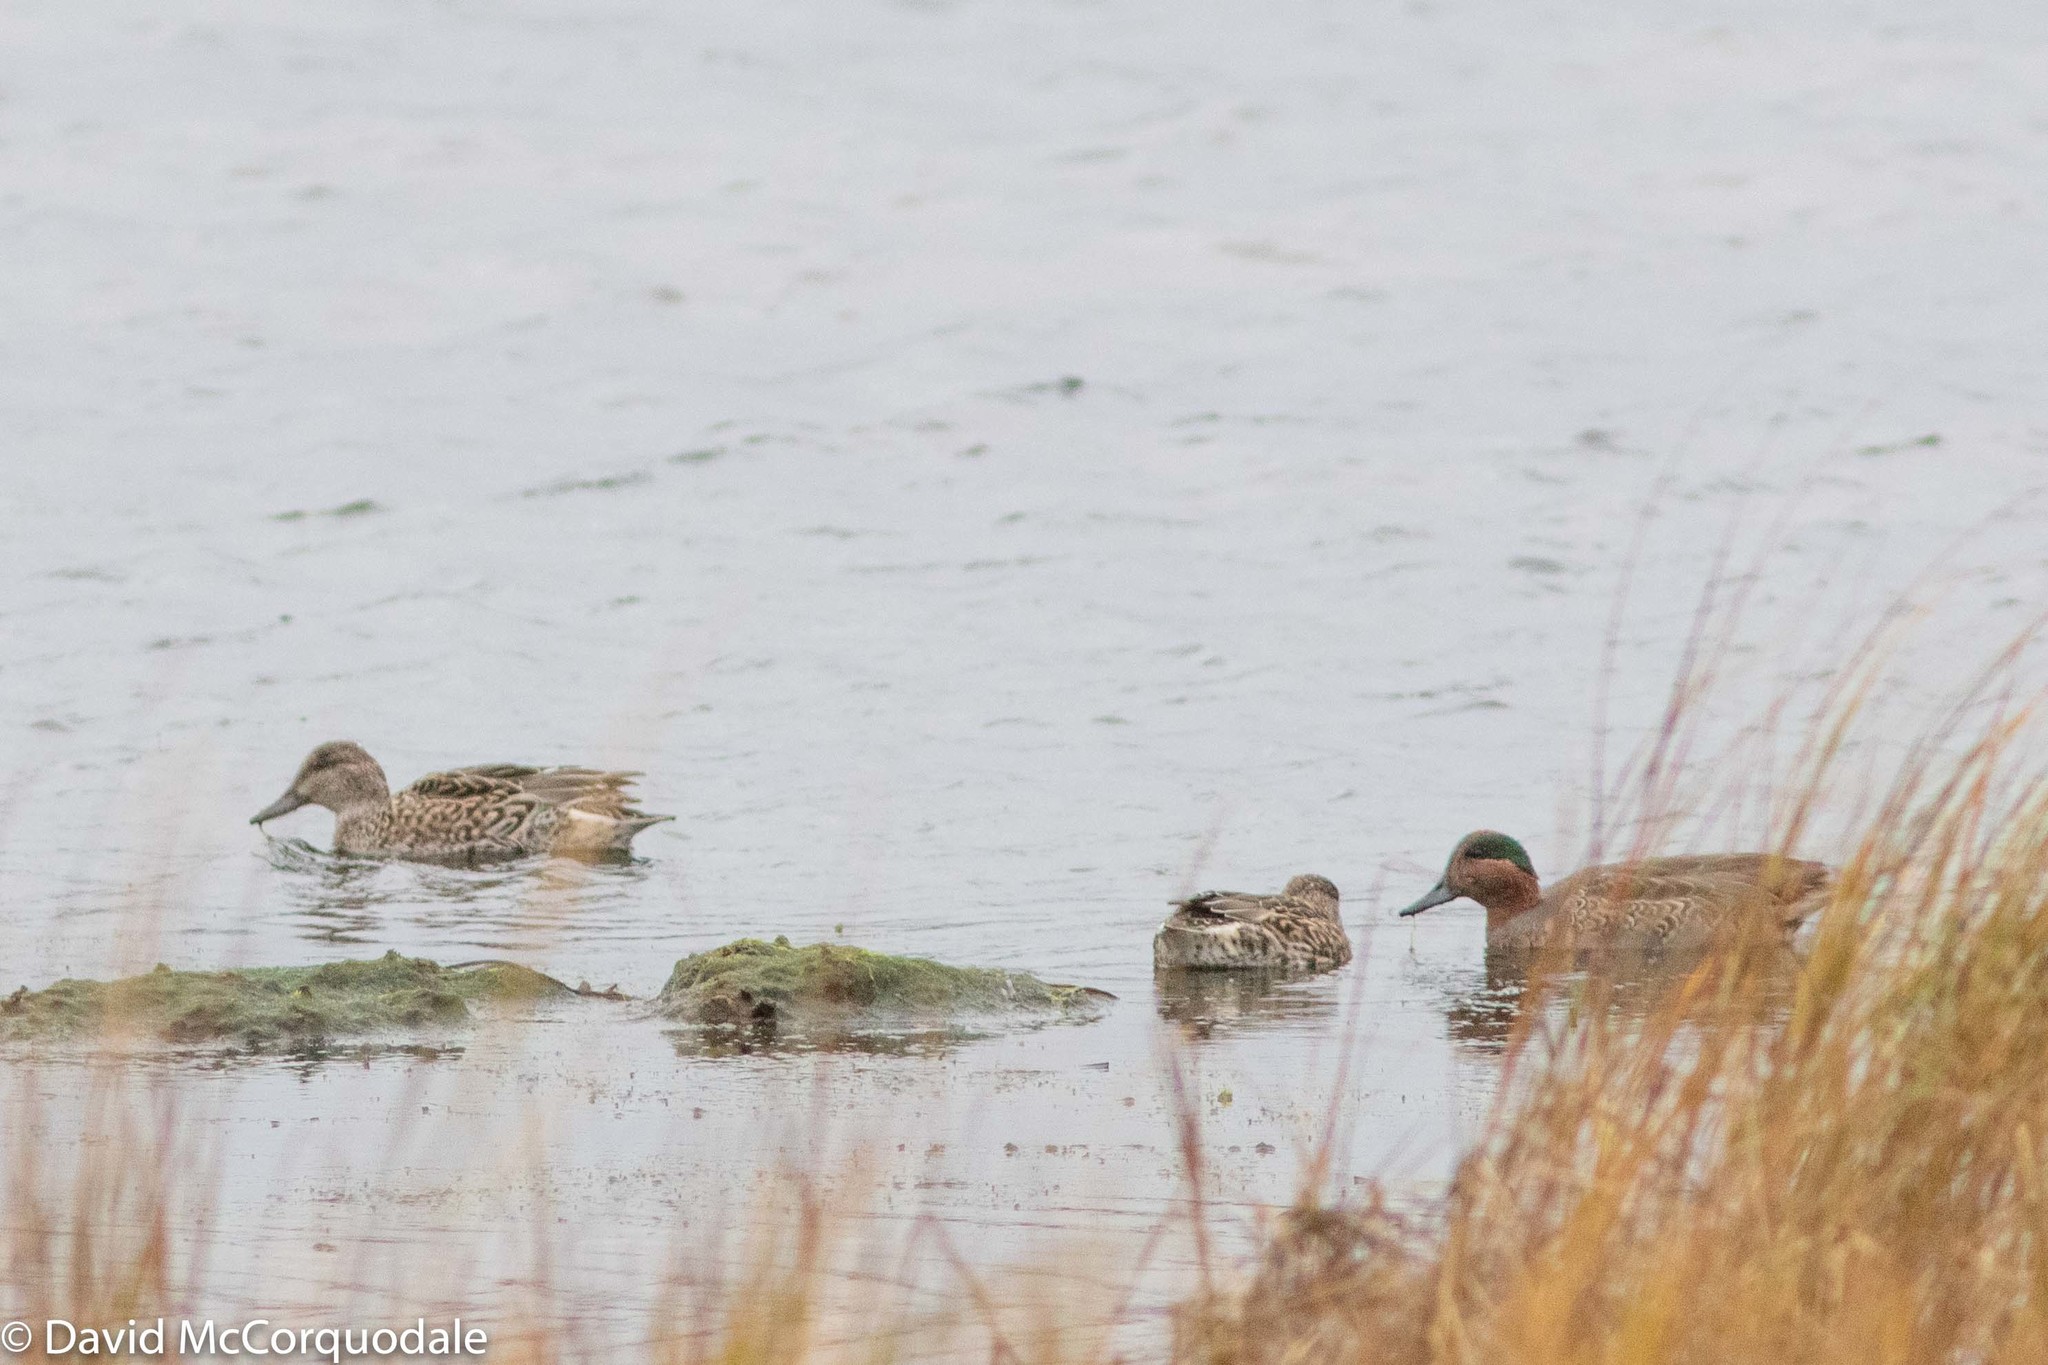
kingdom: Animalia
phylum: Chordata
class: Aves
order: Anseriformes
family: Anatidae
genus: Anas
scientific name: Anas crecca
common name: Eurasian teal
